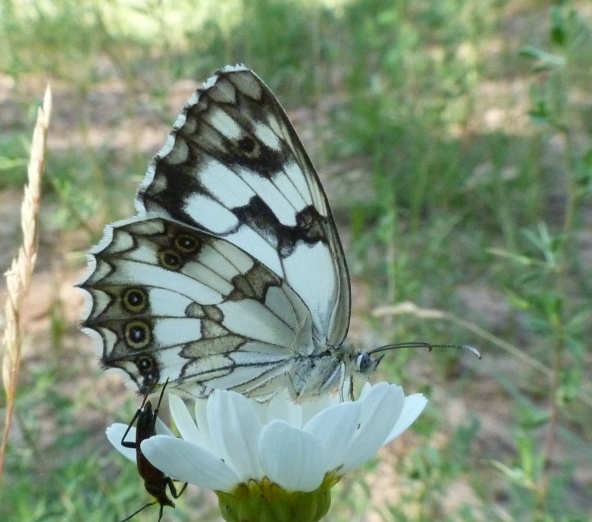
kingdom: Animalia
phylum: Arthropoda
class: Insecta
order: Lepidoptera
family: Nymphalidae
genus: Melanargia
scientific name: Melanargia lachesis
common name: Iberian marbled white
